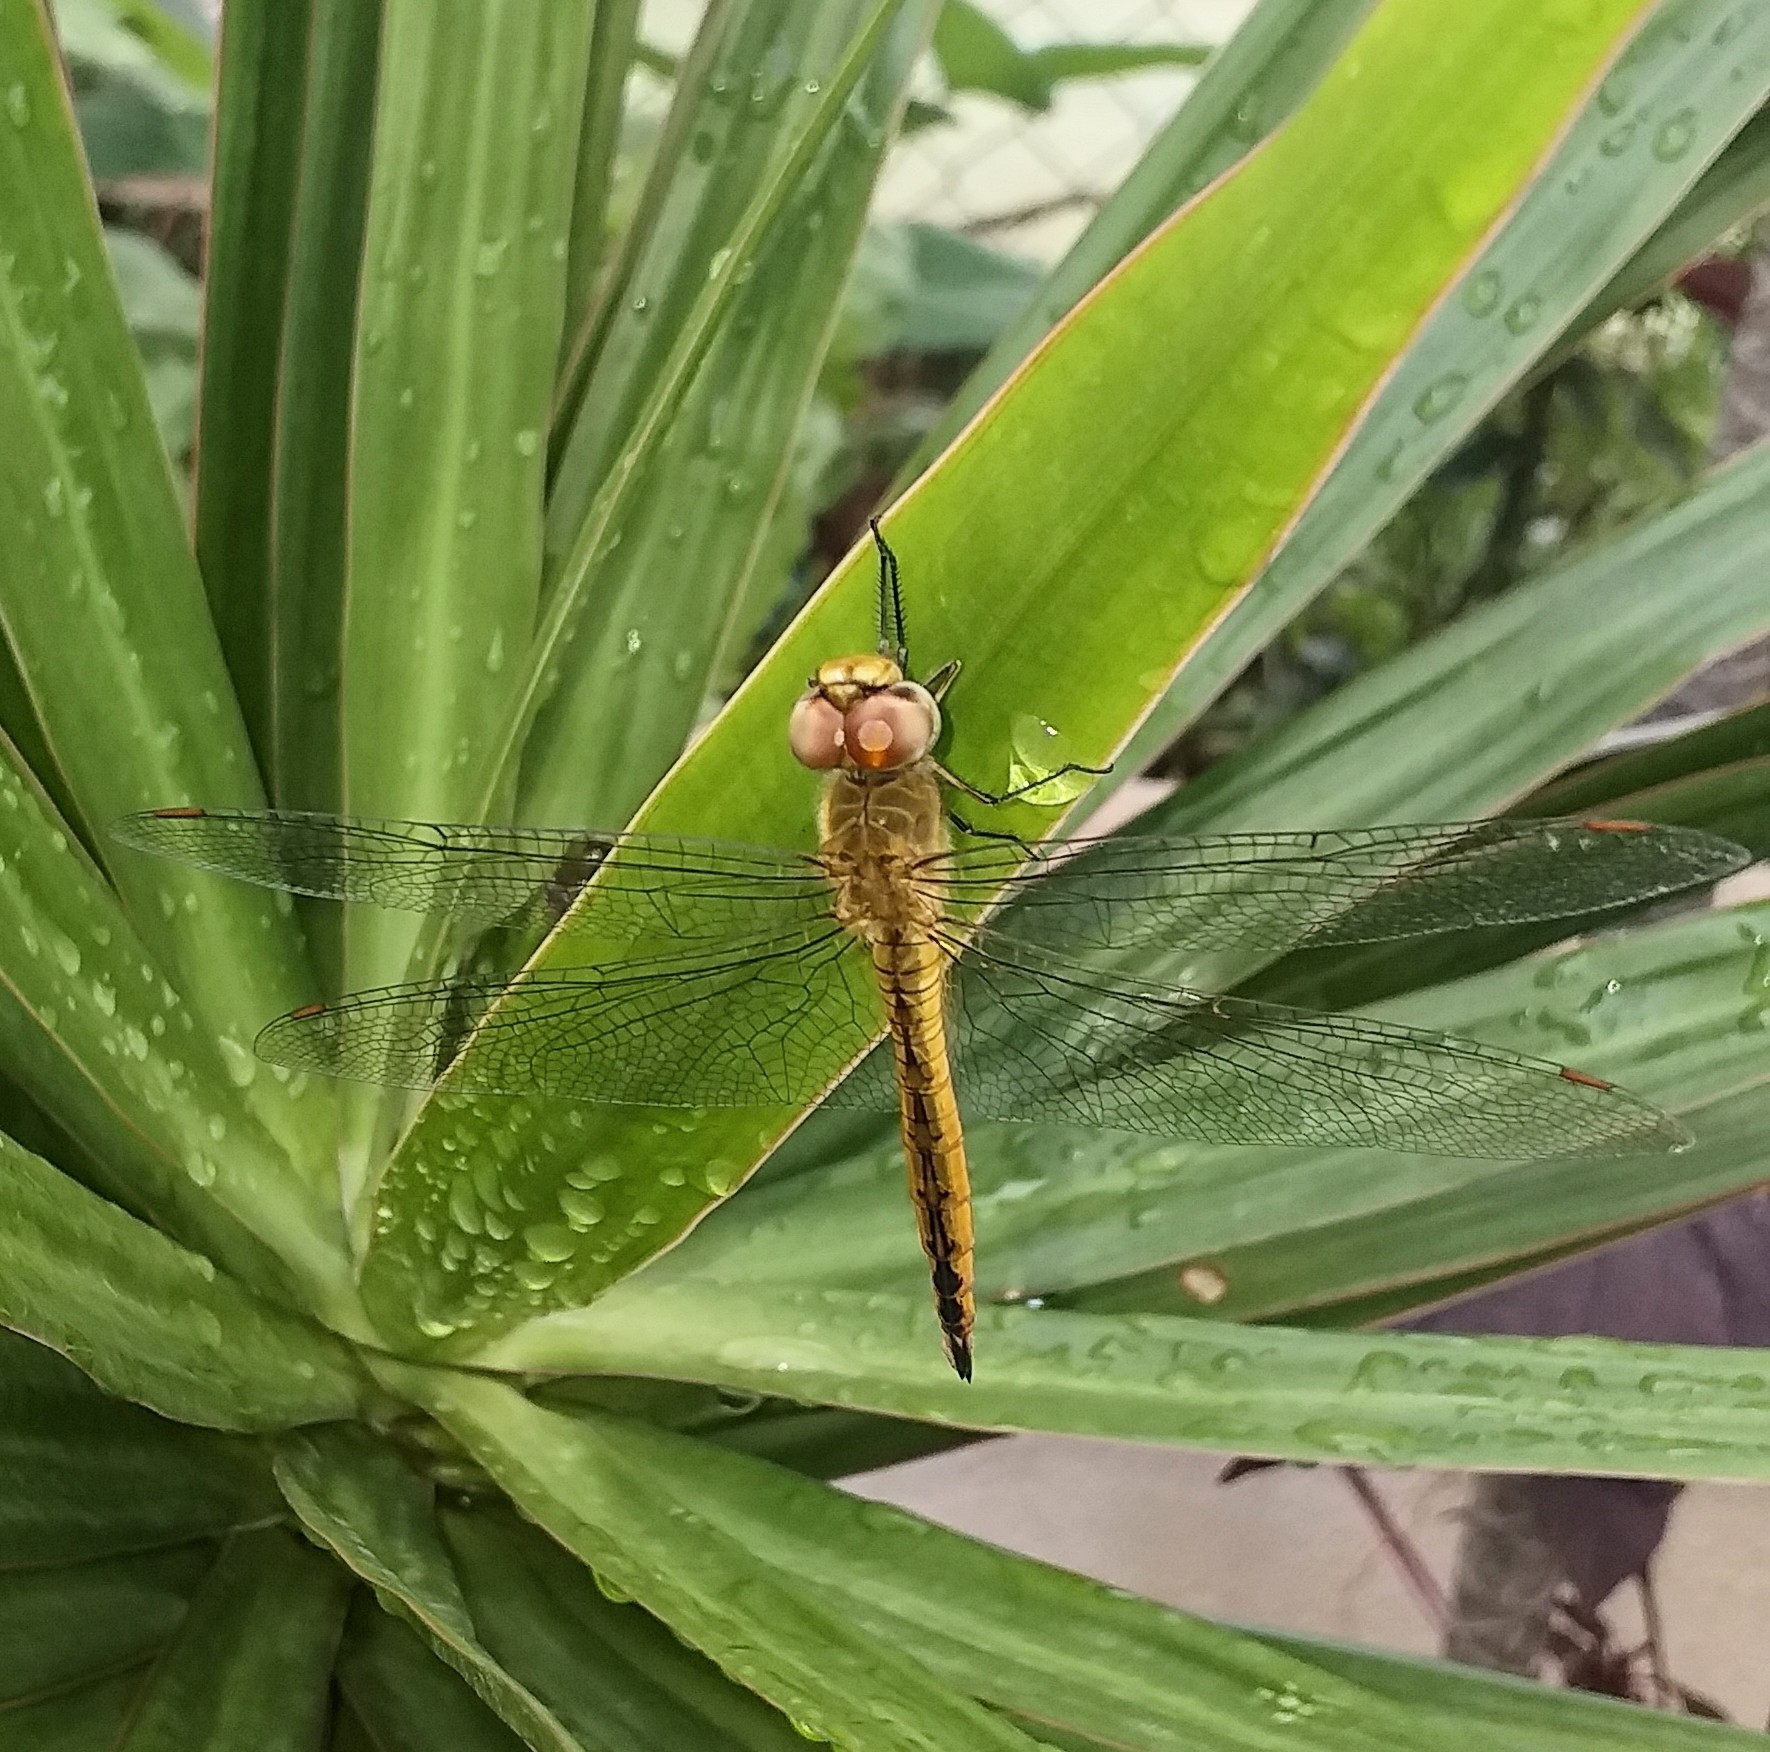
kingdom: Animalia
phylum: Arthropoda
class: Insecta
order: Odonata
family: Libellulidae
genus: Pantala
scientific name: Pantala flavescens
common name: Wandering glider
